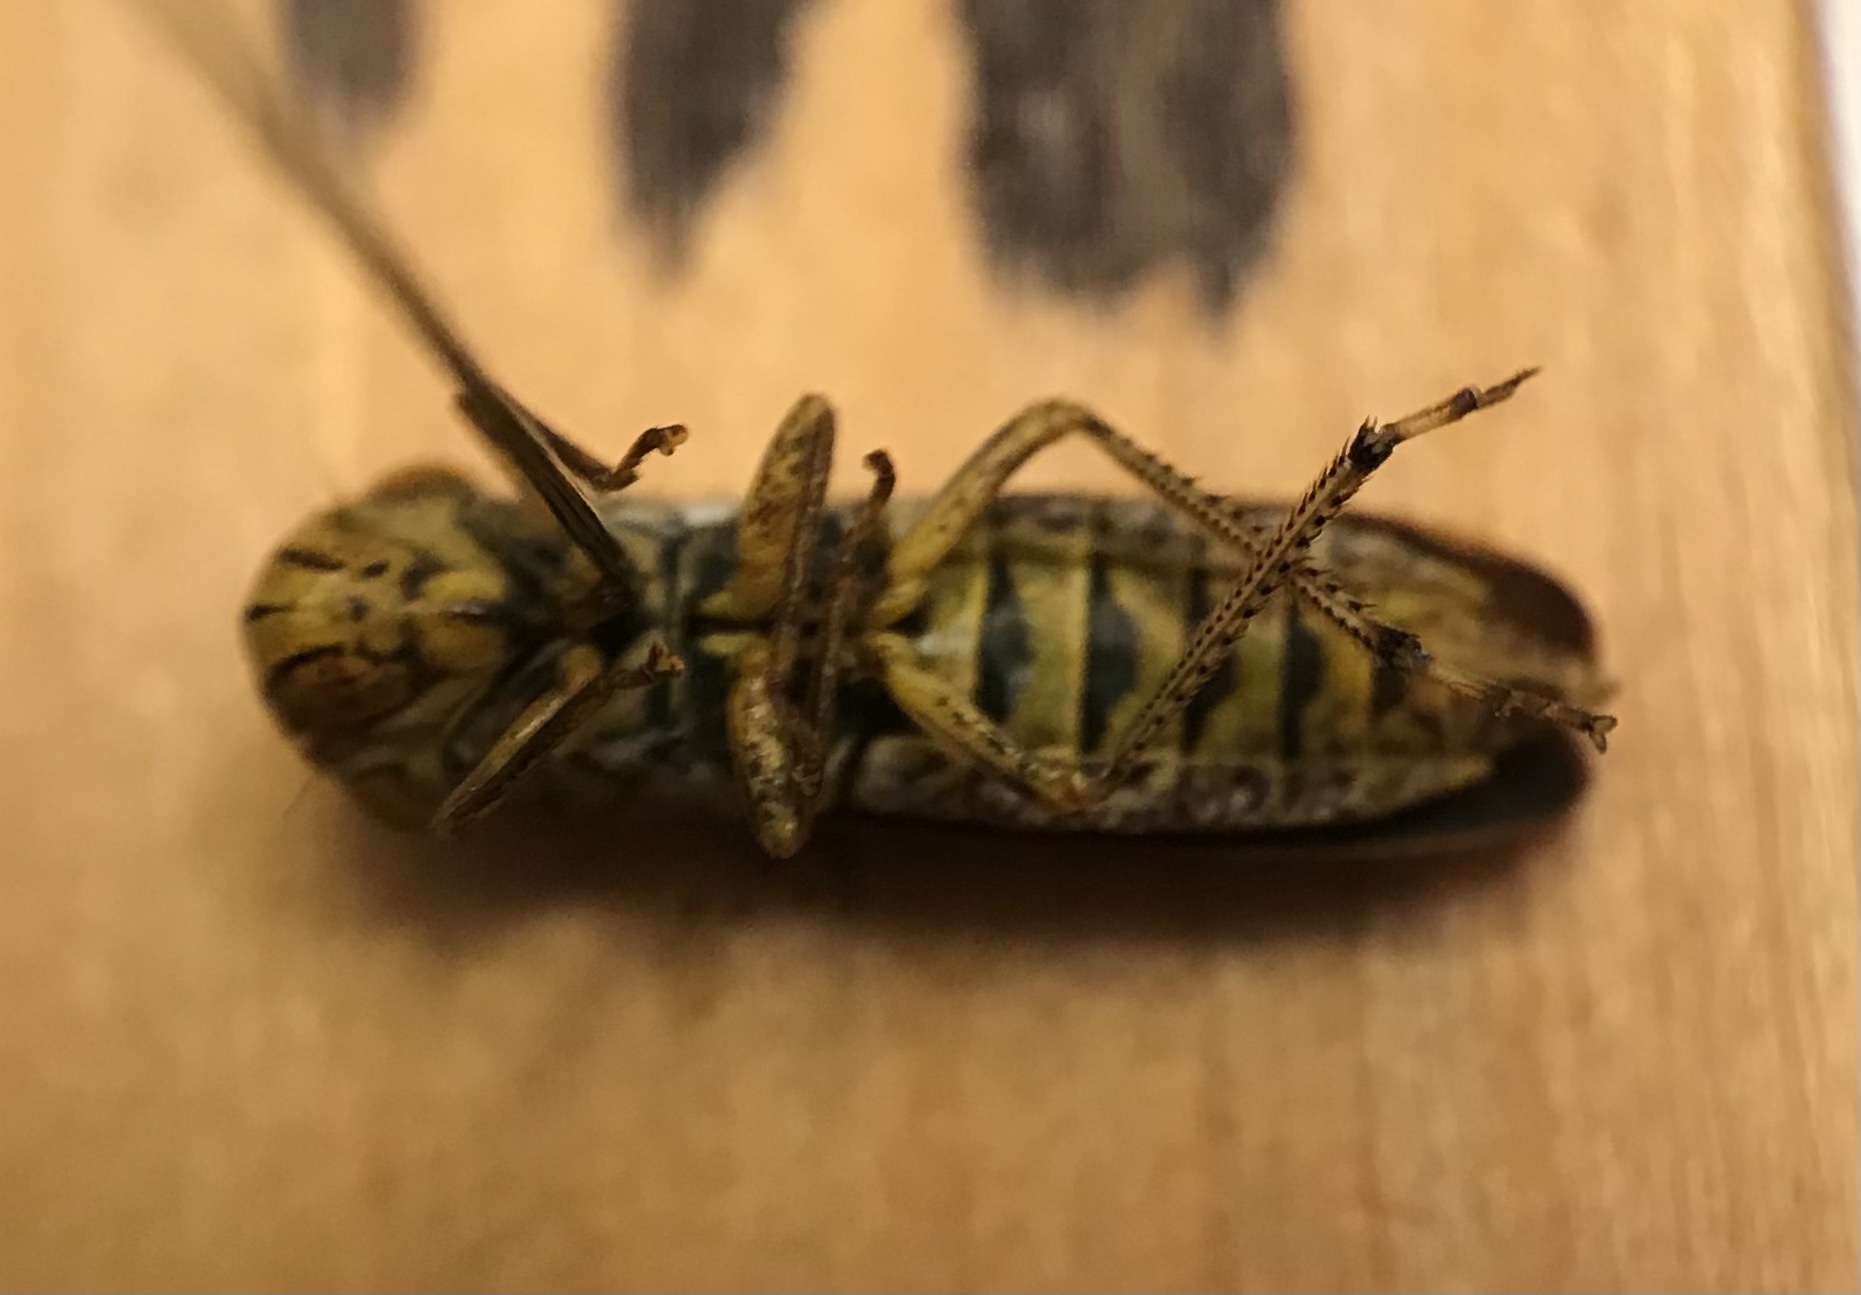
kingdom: Animalia
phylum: Arthropoda
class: Insecta
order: Hemiptera
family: Cicadellidae
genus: Oncometopia
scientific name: Oncometopia orbona
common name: Broad-headed sharpshooter
